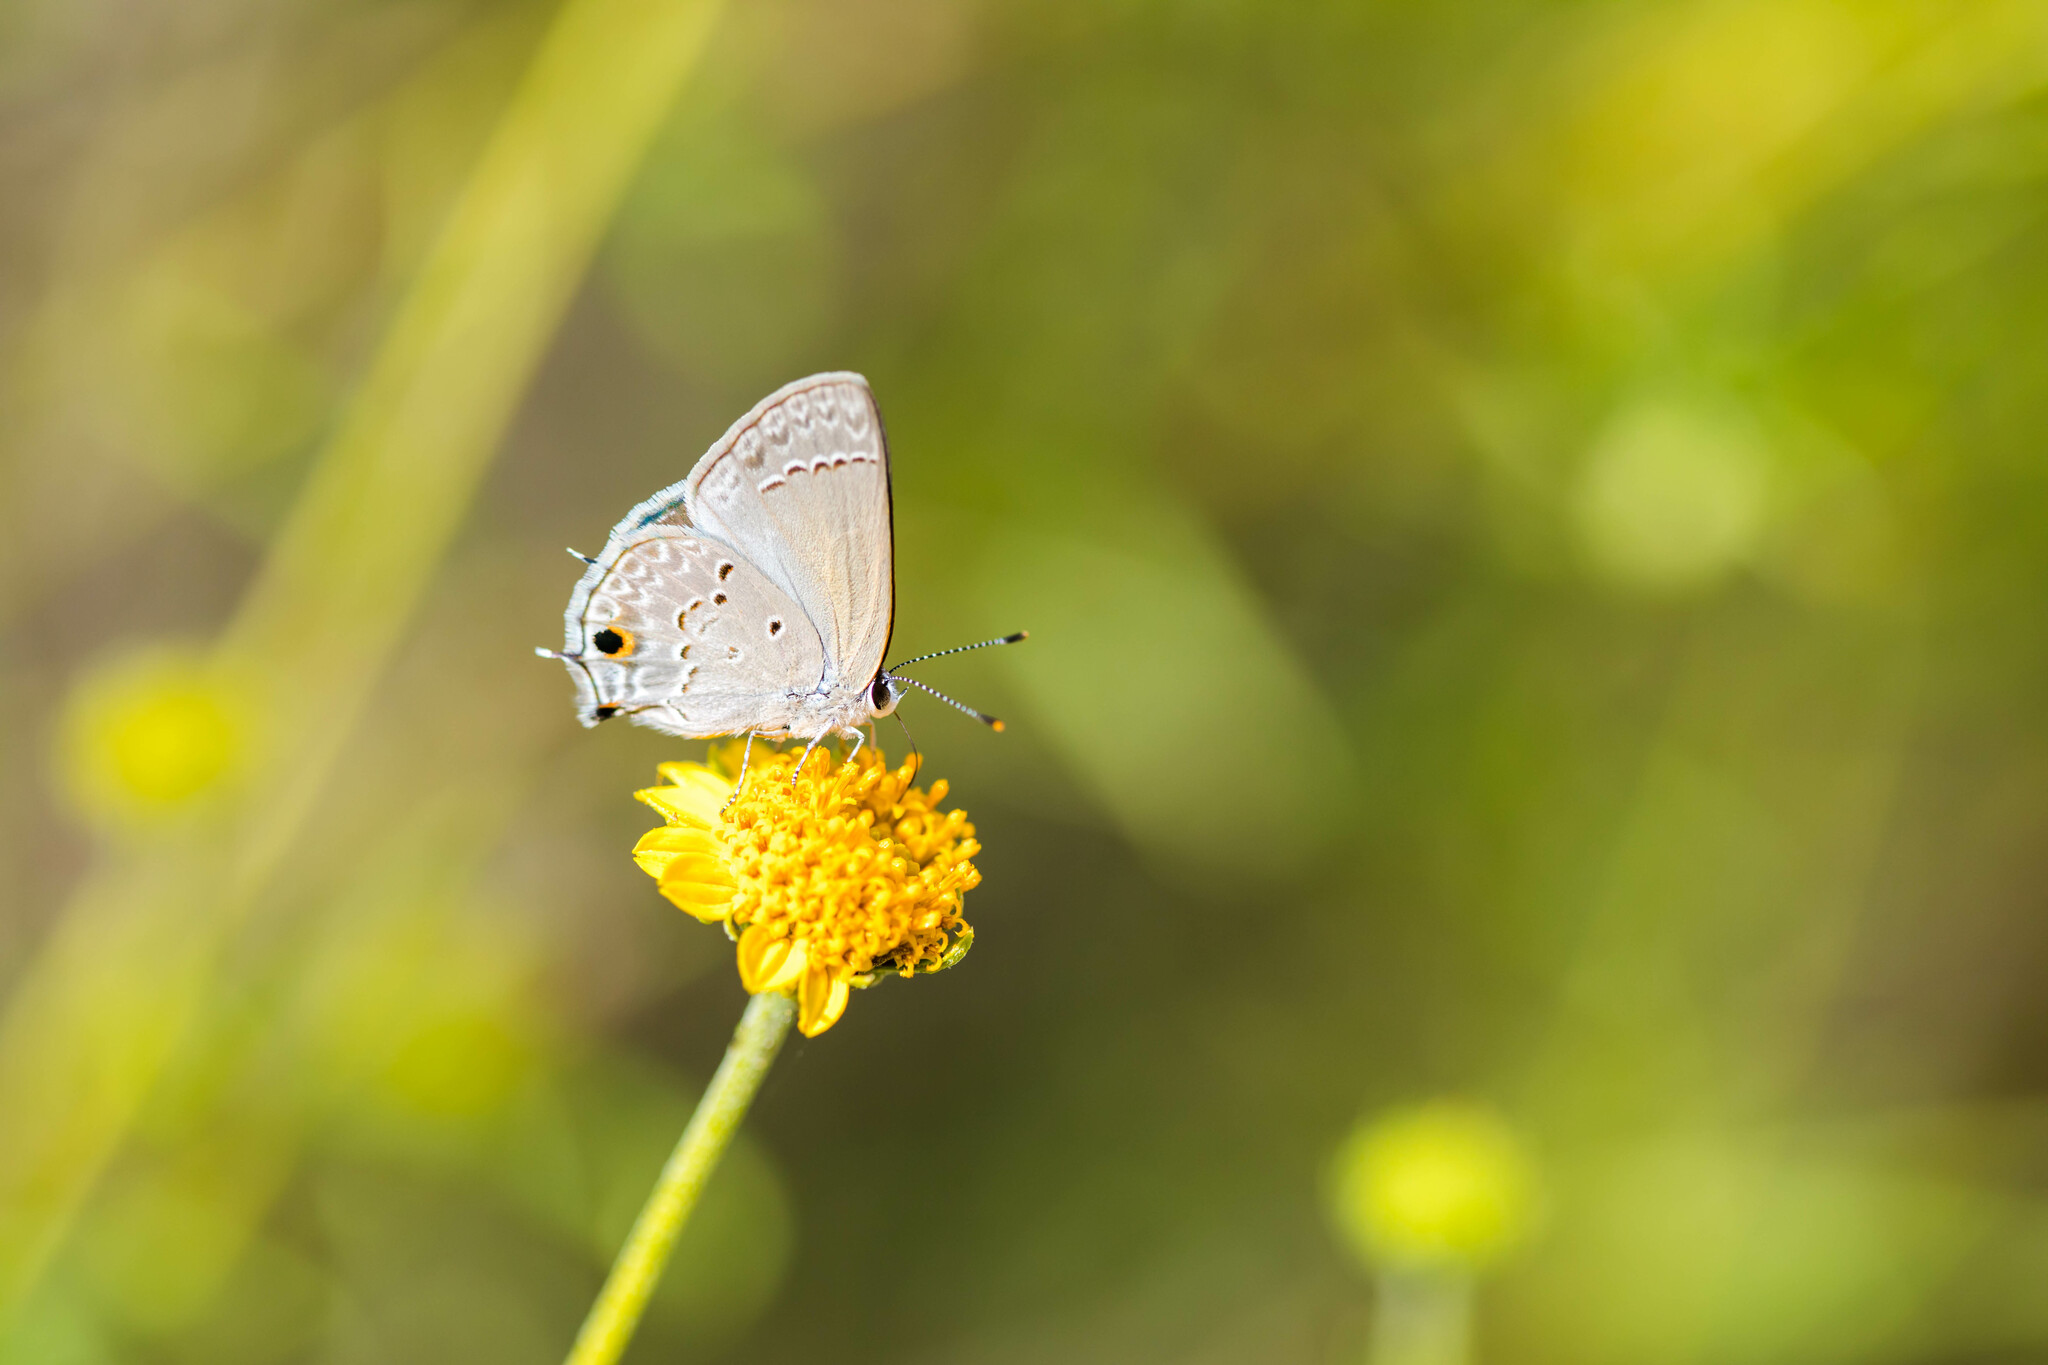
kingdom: Animalia
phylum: Arthropoda
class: Insecta
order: Lepidoptera
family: Lycaenidae
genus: Callicista
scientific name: Callicista columella
